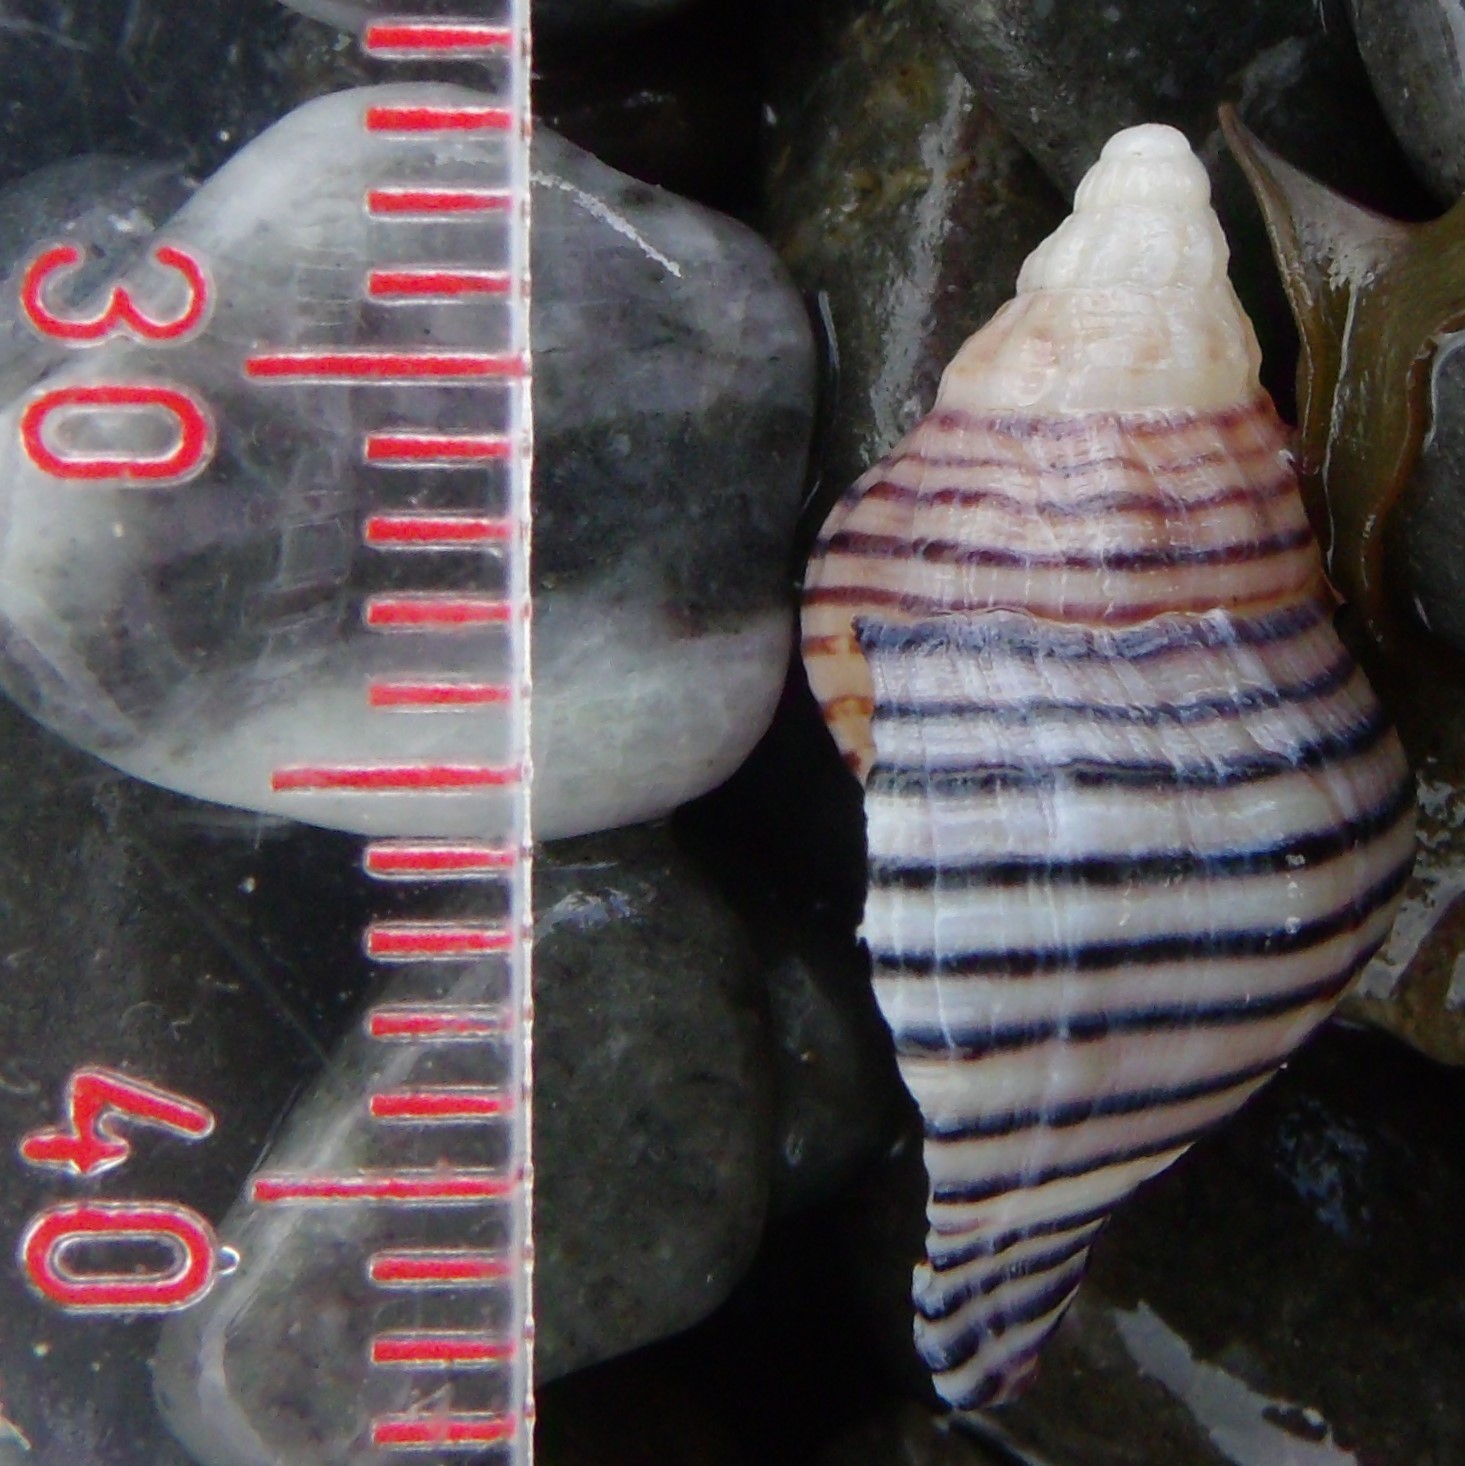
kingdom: Animalia
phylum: Mollusca
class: Gastropoda
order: Neogastropoda
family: Tudiclidae
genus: Buccinulum
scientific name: Buccinulum linea
